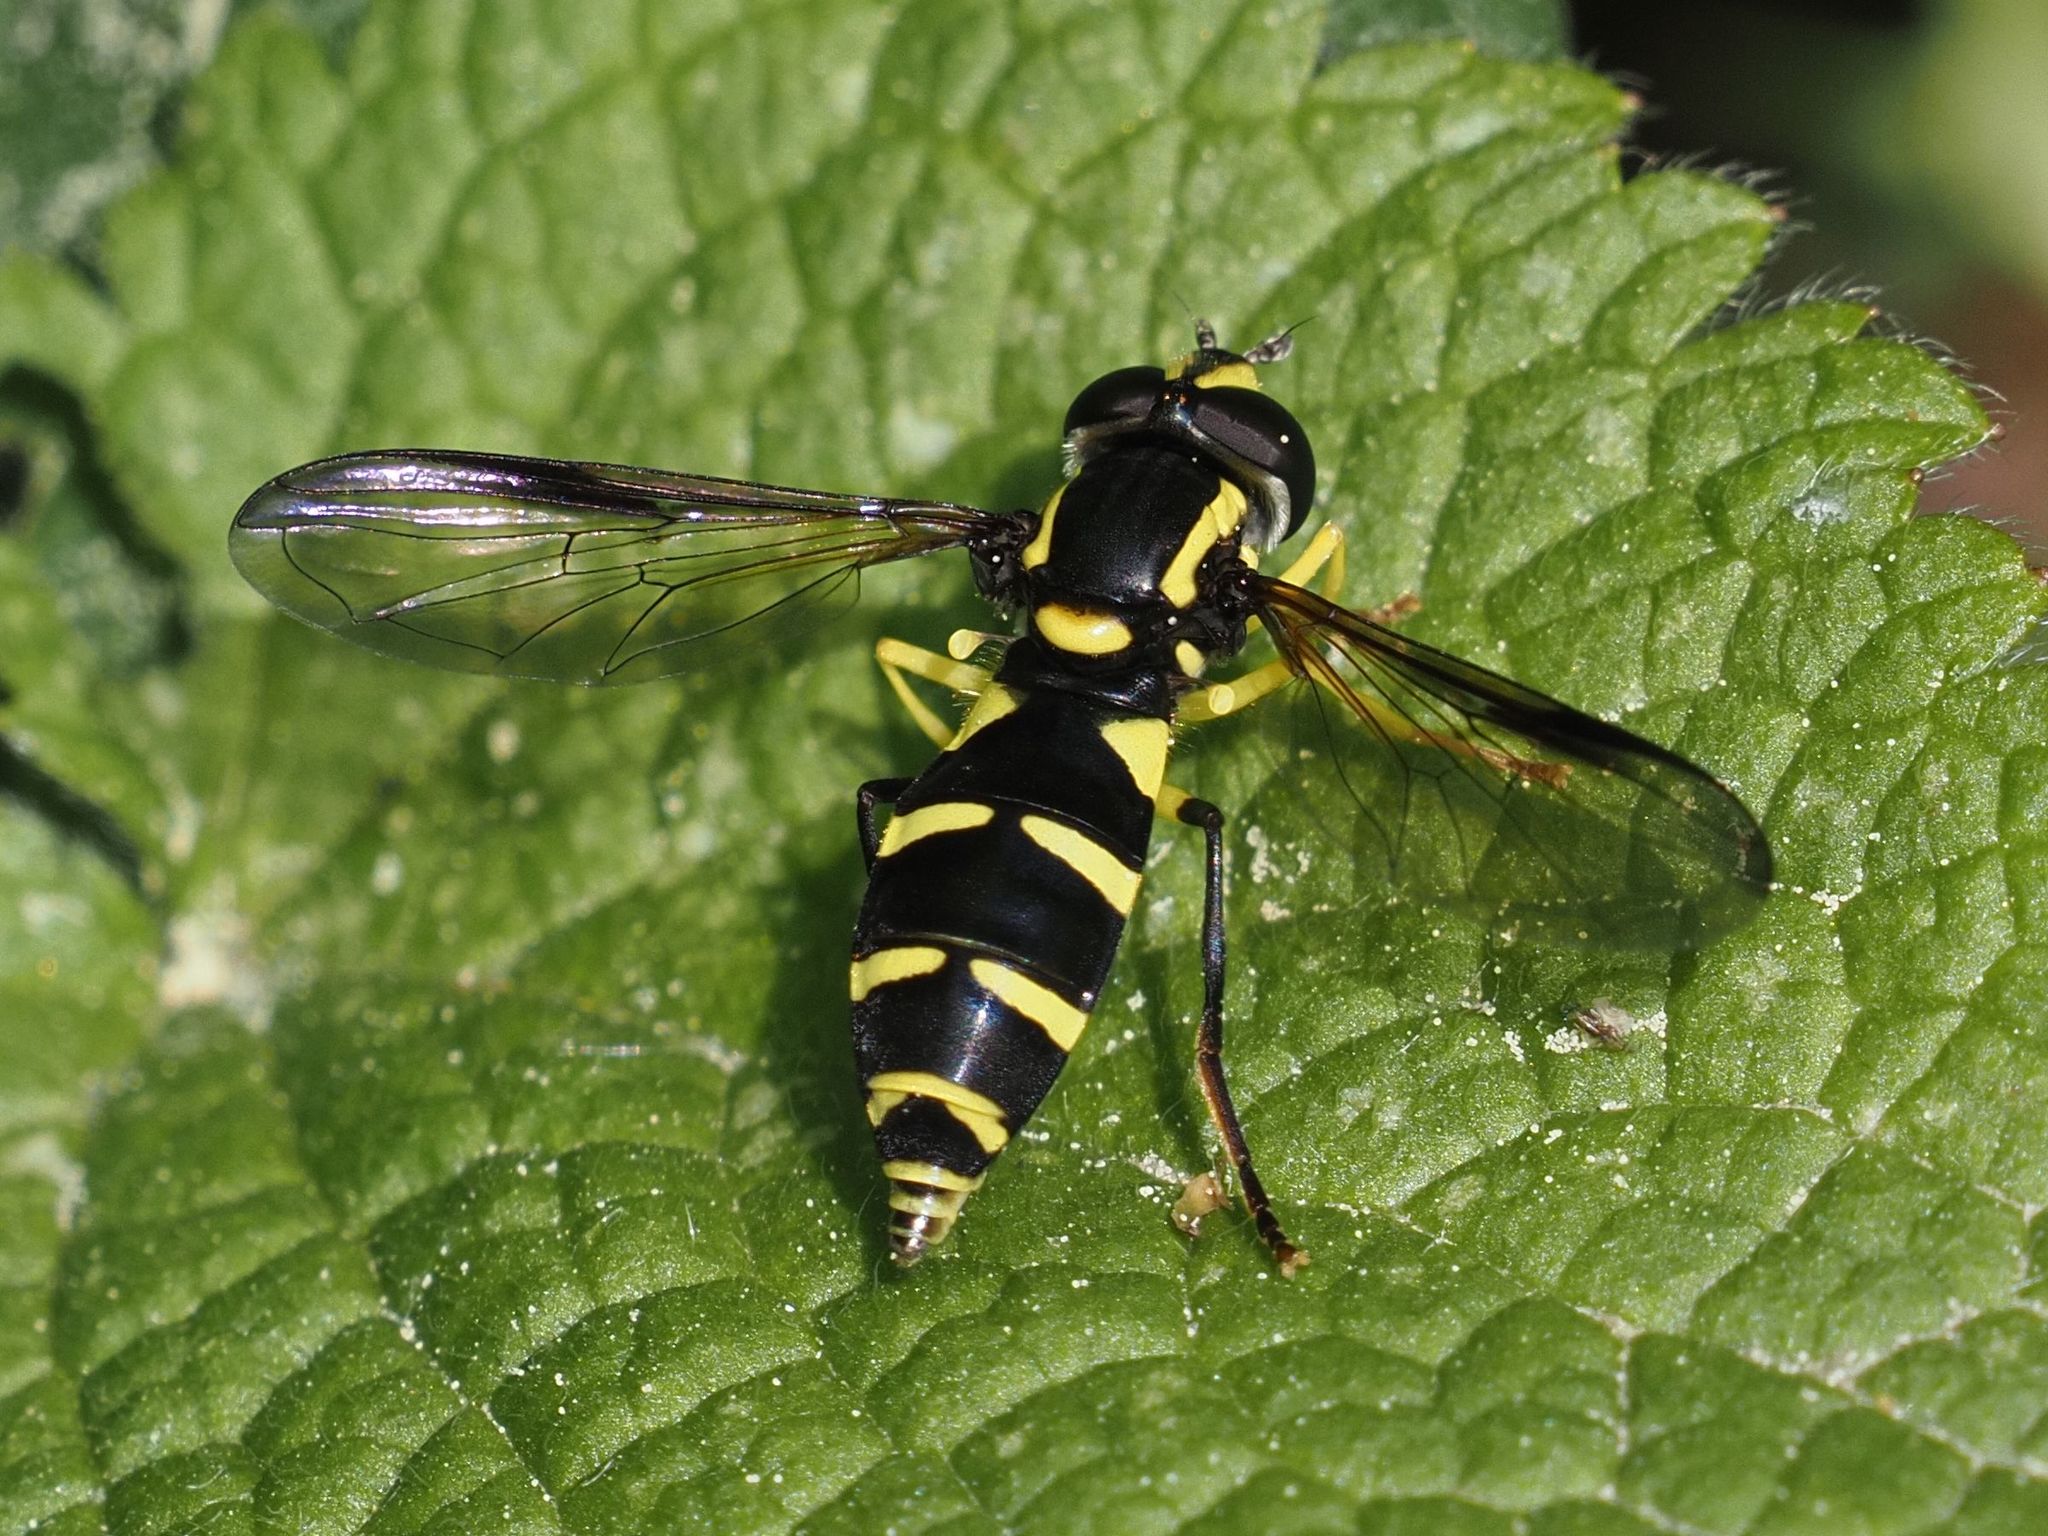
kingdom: Animalia
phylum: Arthropoda
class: Insecta
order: Diptera
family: Syrphidae
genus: Philhelius
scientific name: Philhelius dives
